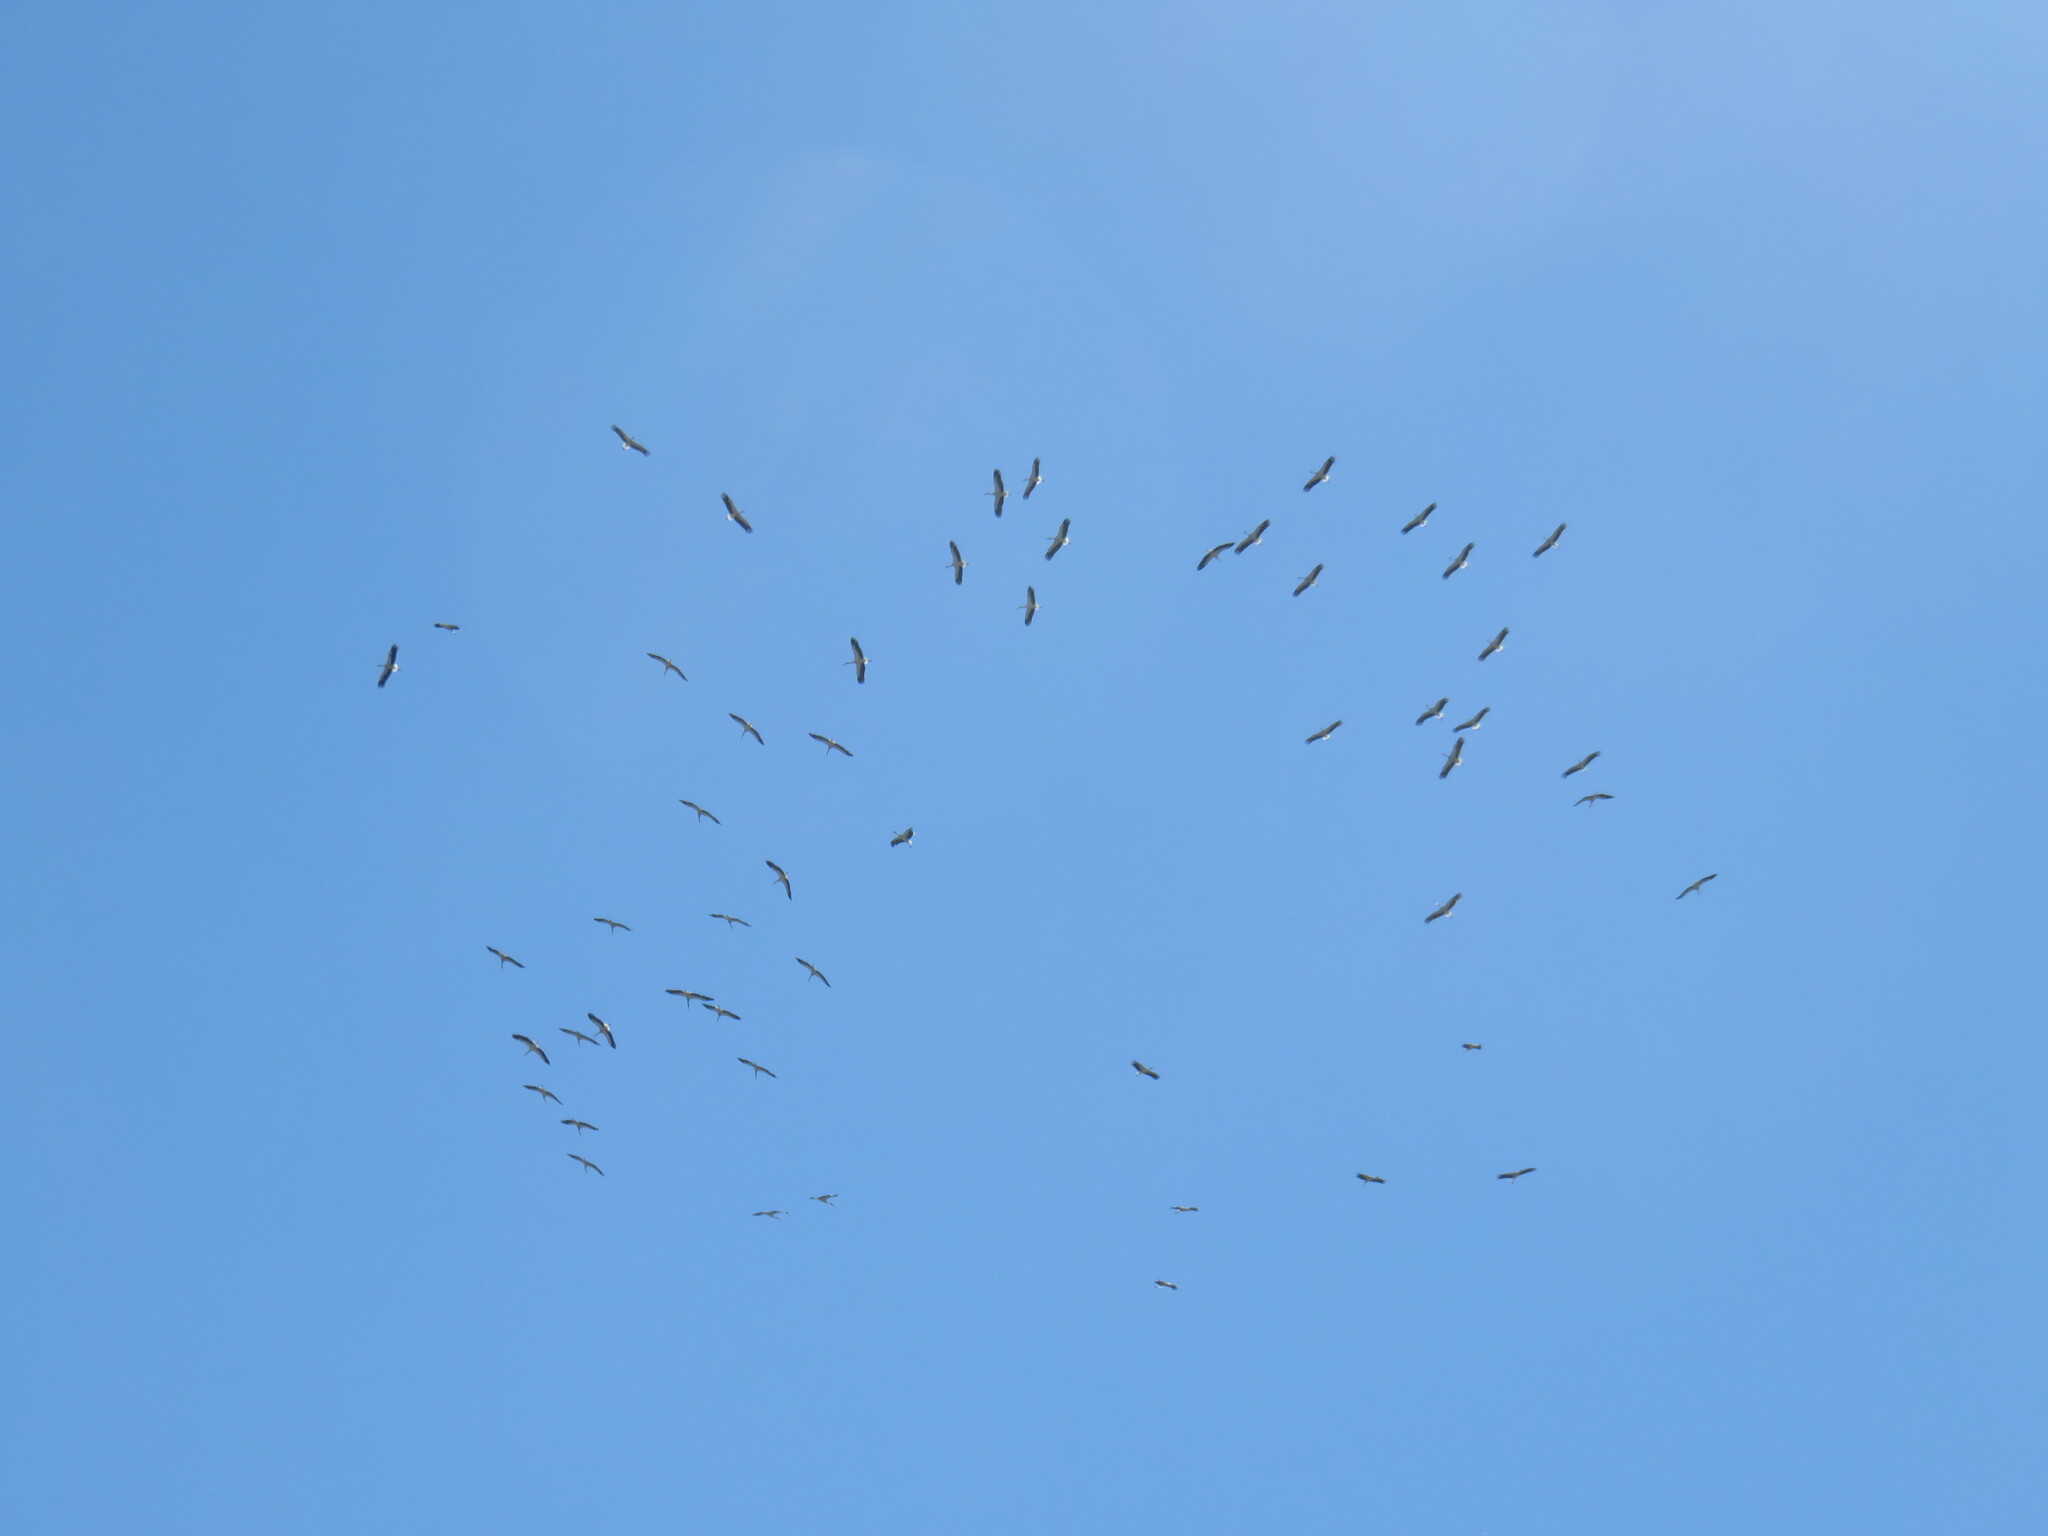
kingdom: Animalia
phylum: Chordata
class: Aves
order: Ciconiiformes
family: Ciconiidae
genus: Ciconia
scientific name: Ciconia ciconia
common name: White stork
